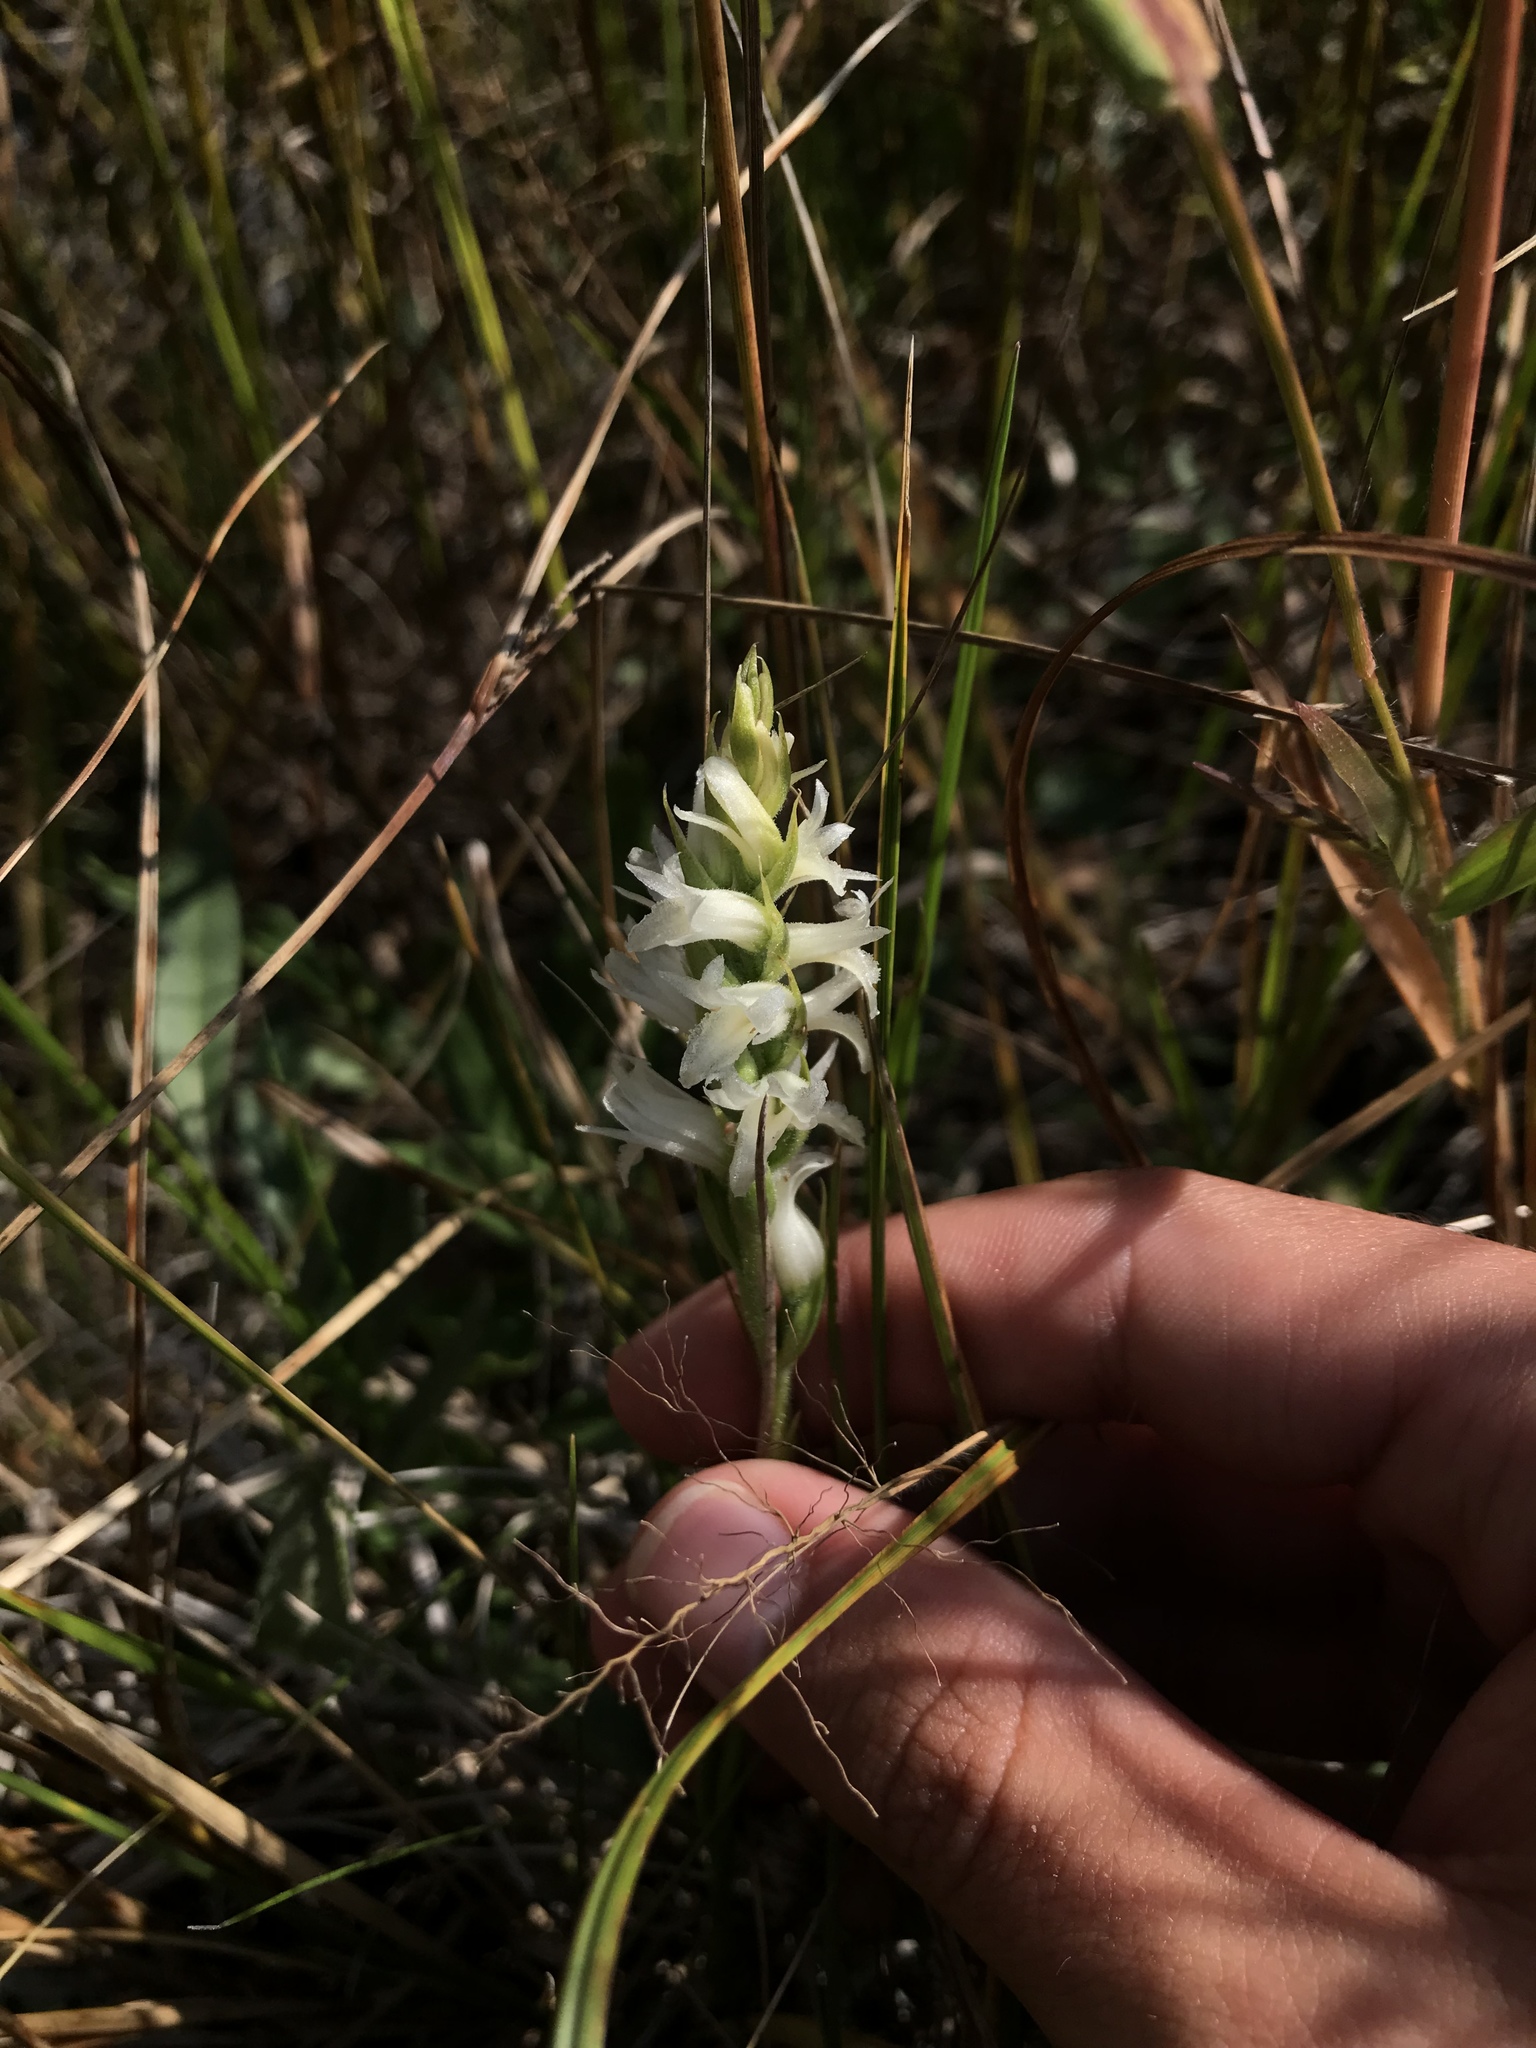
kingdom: Plantae
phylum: Tracheophyta
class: Liliopsida
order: Asparagales
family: Orchidaceae
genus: Spiranthes
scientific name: Spiranthes incurva
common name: Sphinx ladies'-tresses
